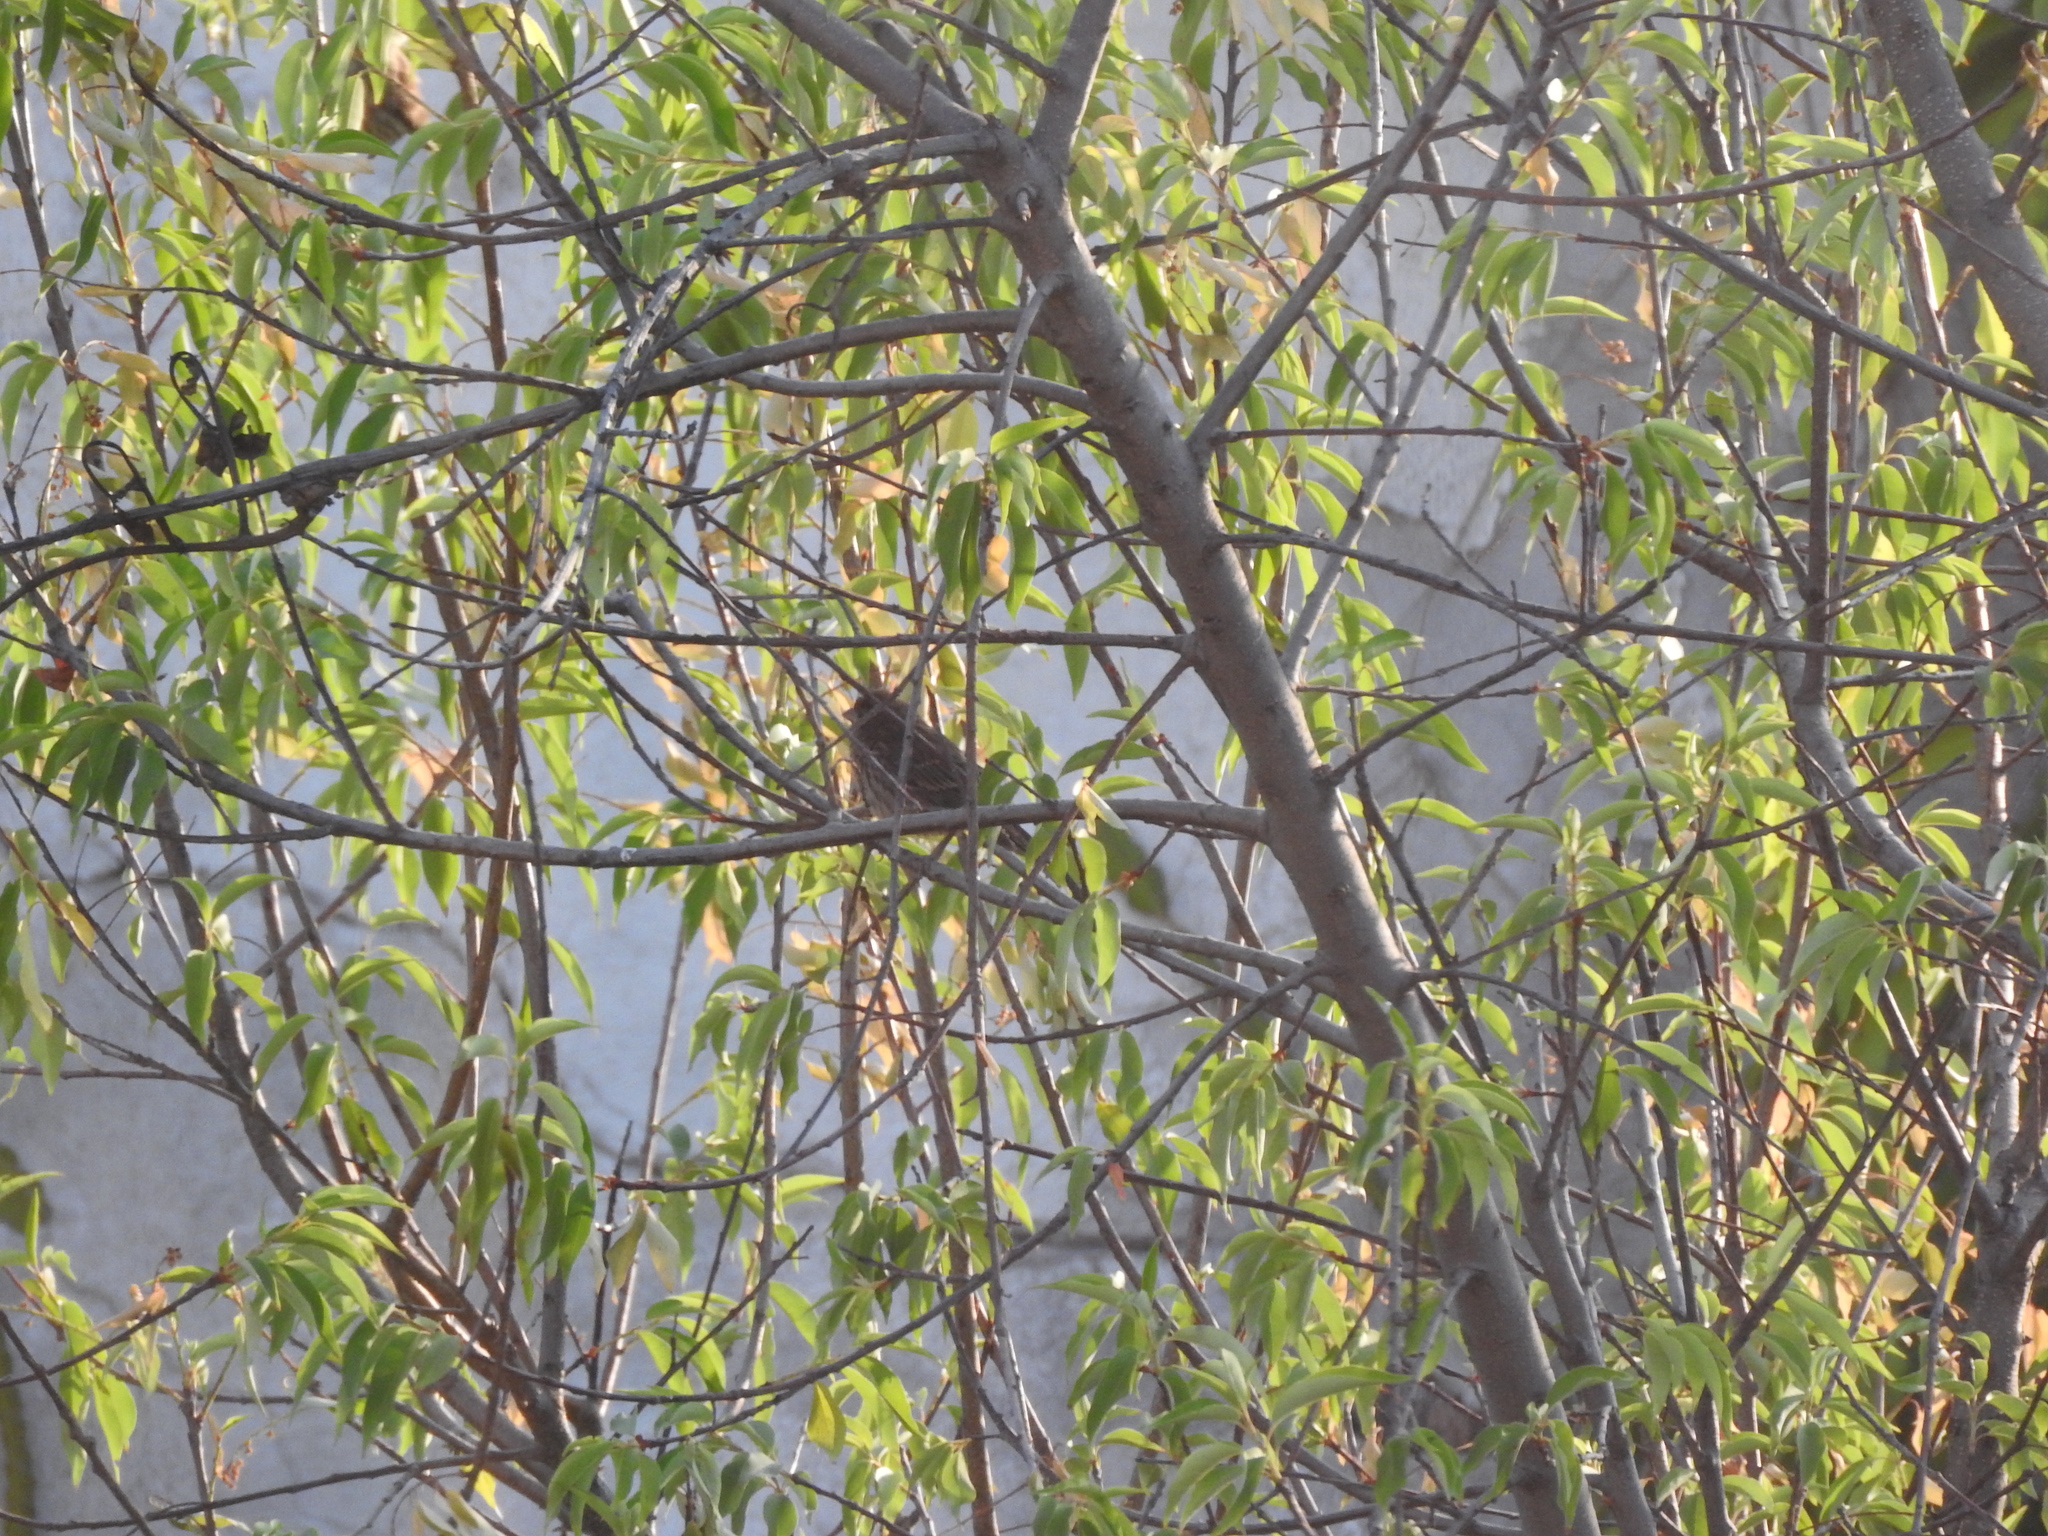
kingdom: Animalia
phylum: Chordata
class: Aves
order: Passeriformes
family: Fringillidae
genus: Spinus
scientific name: Spinus psaltria
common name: Lesser goldfinch
